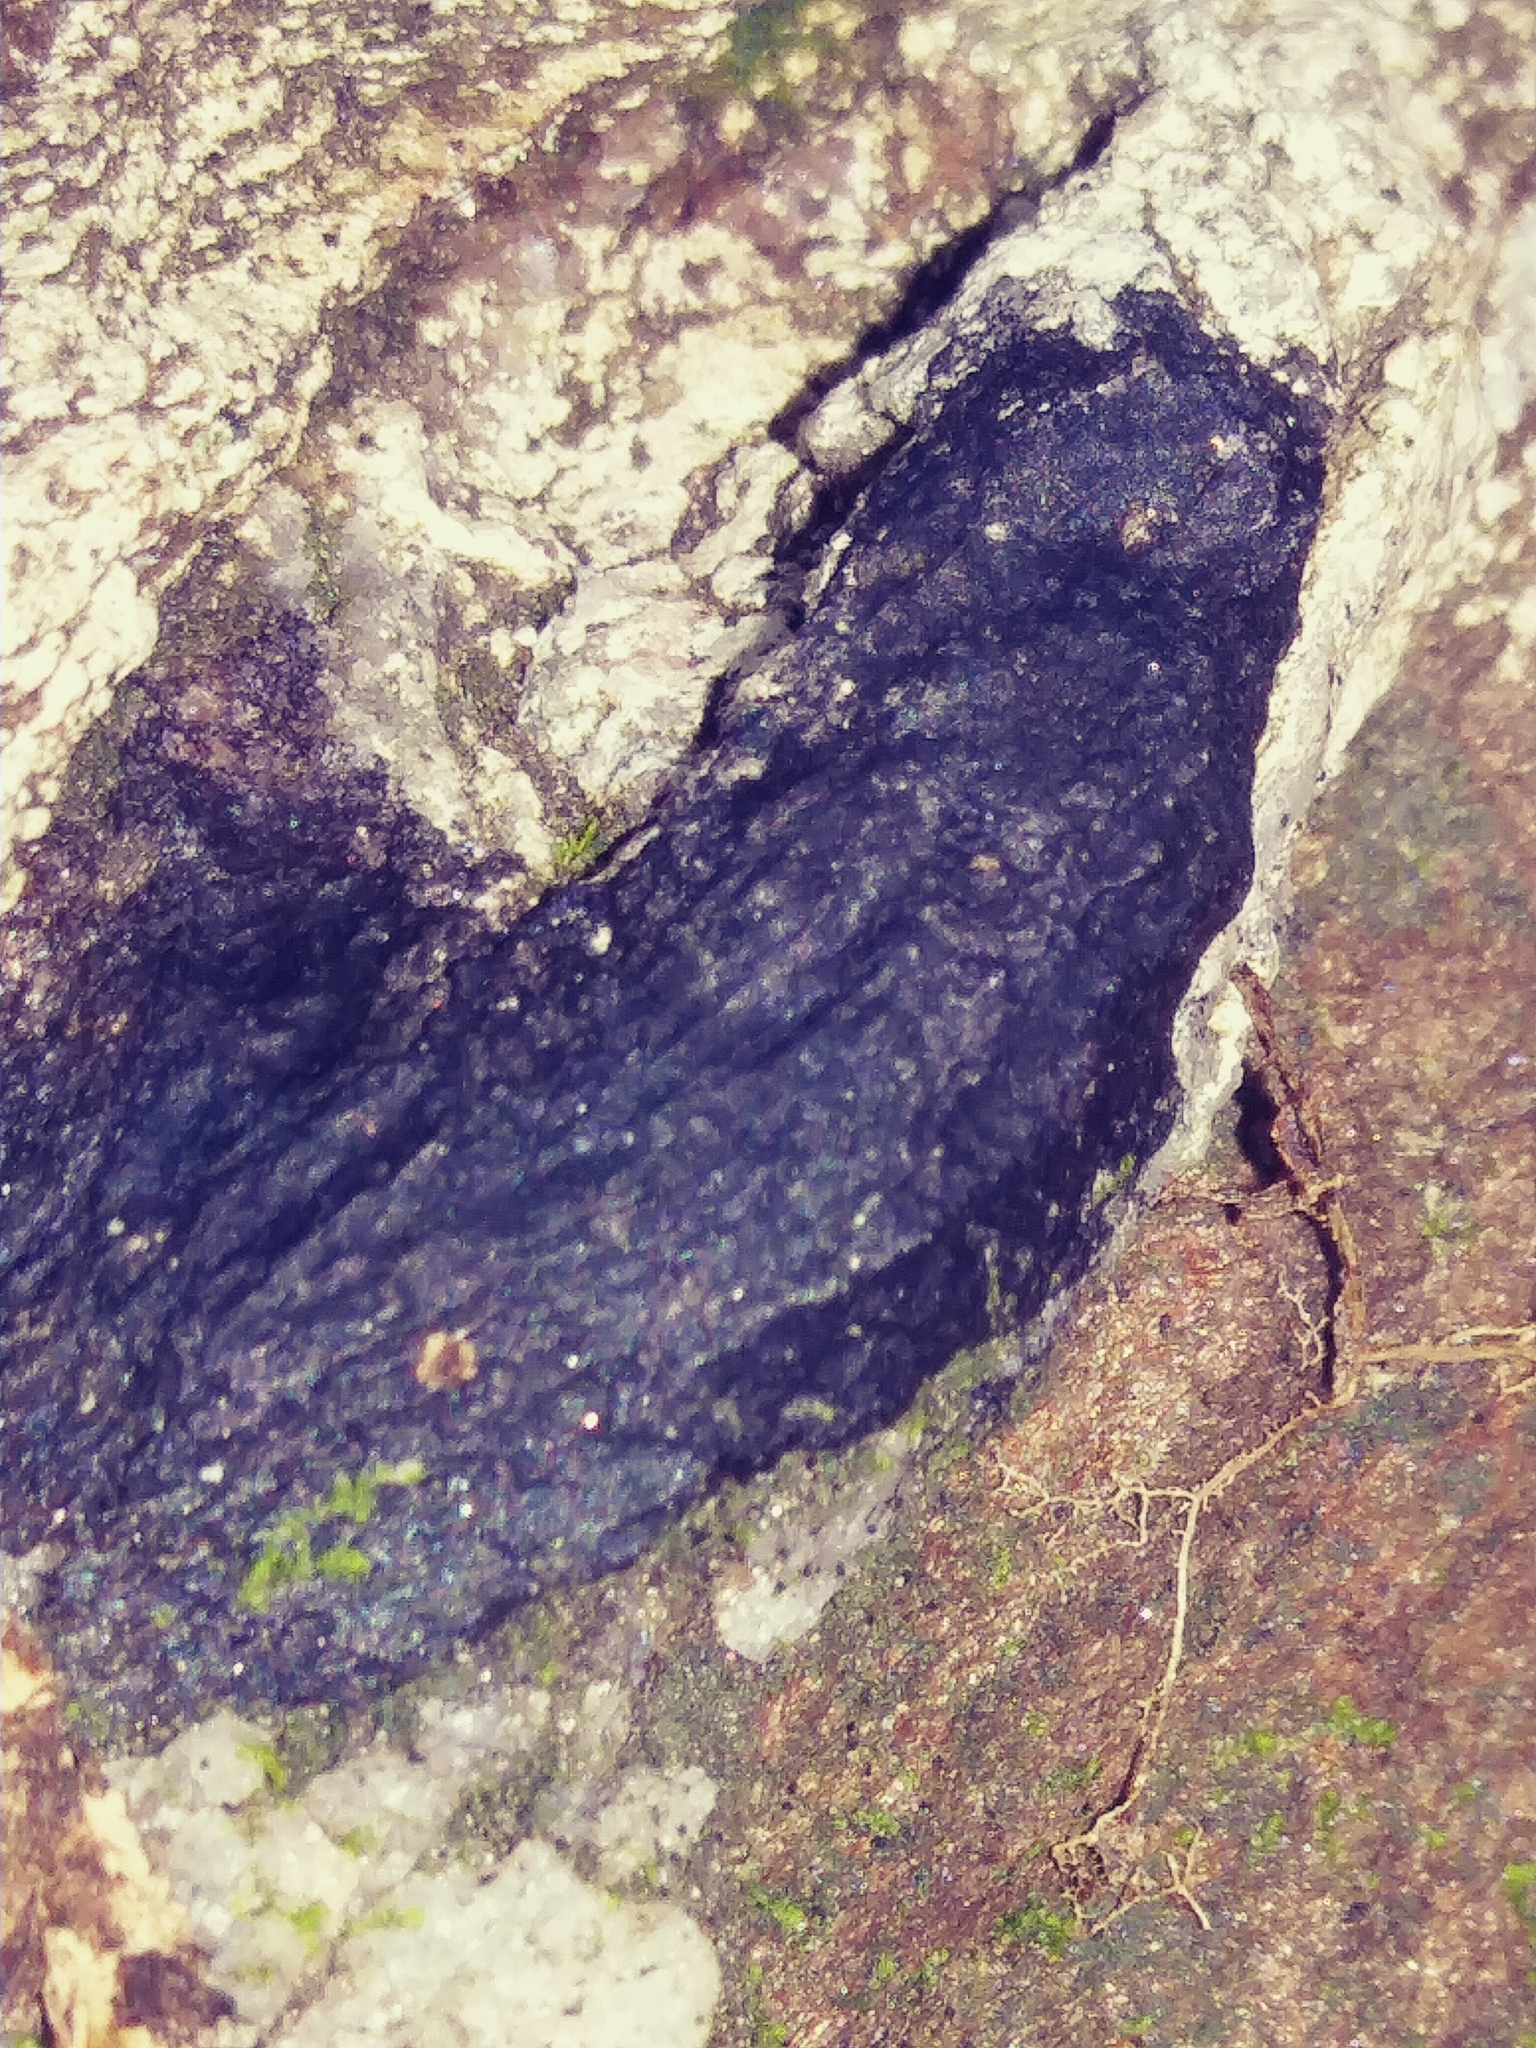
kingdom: Fungi
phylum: Ascomycota
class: Lecanoromycetes
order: Caliciales
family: Caliciaceae
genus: Amandinea
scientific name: Amandinea punctata
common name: Tiny button lichen
